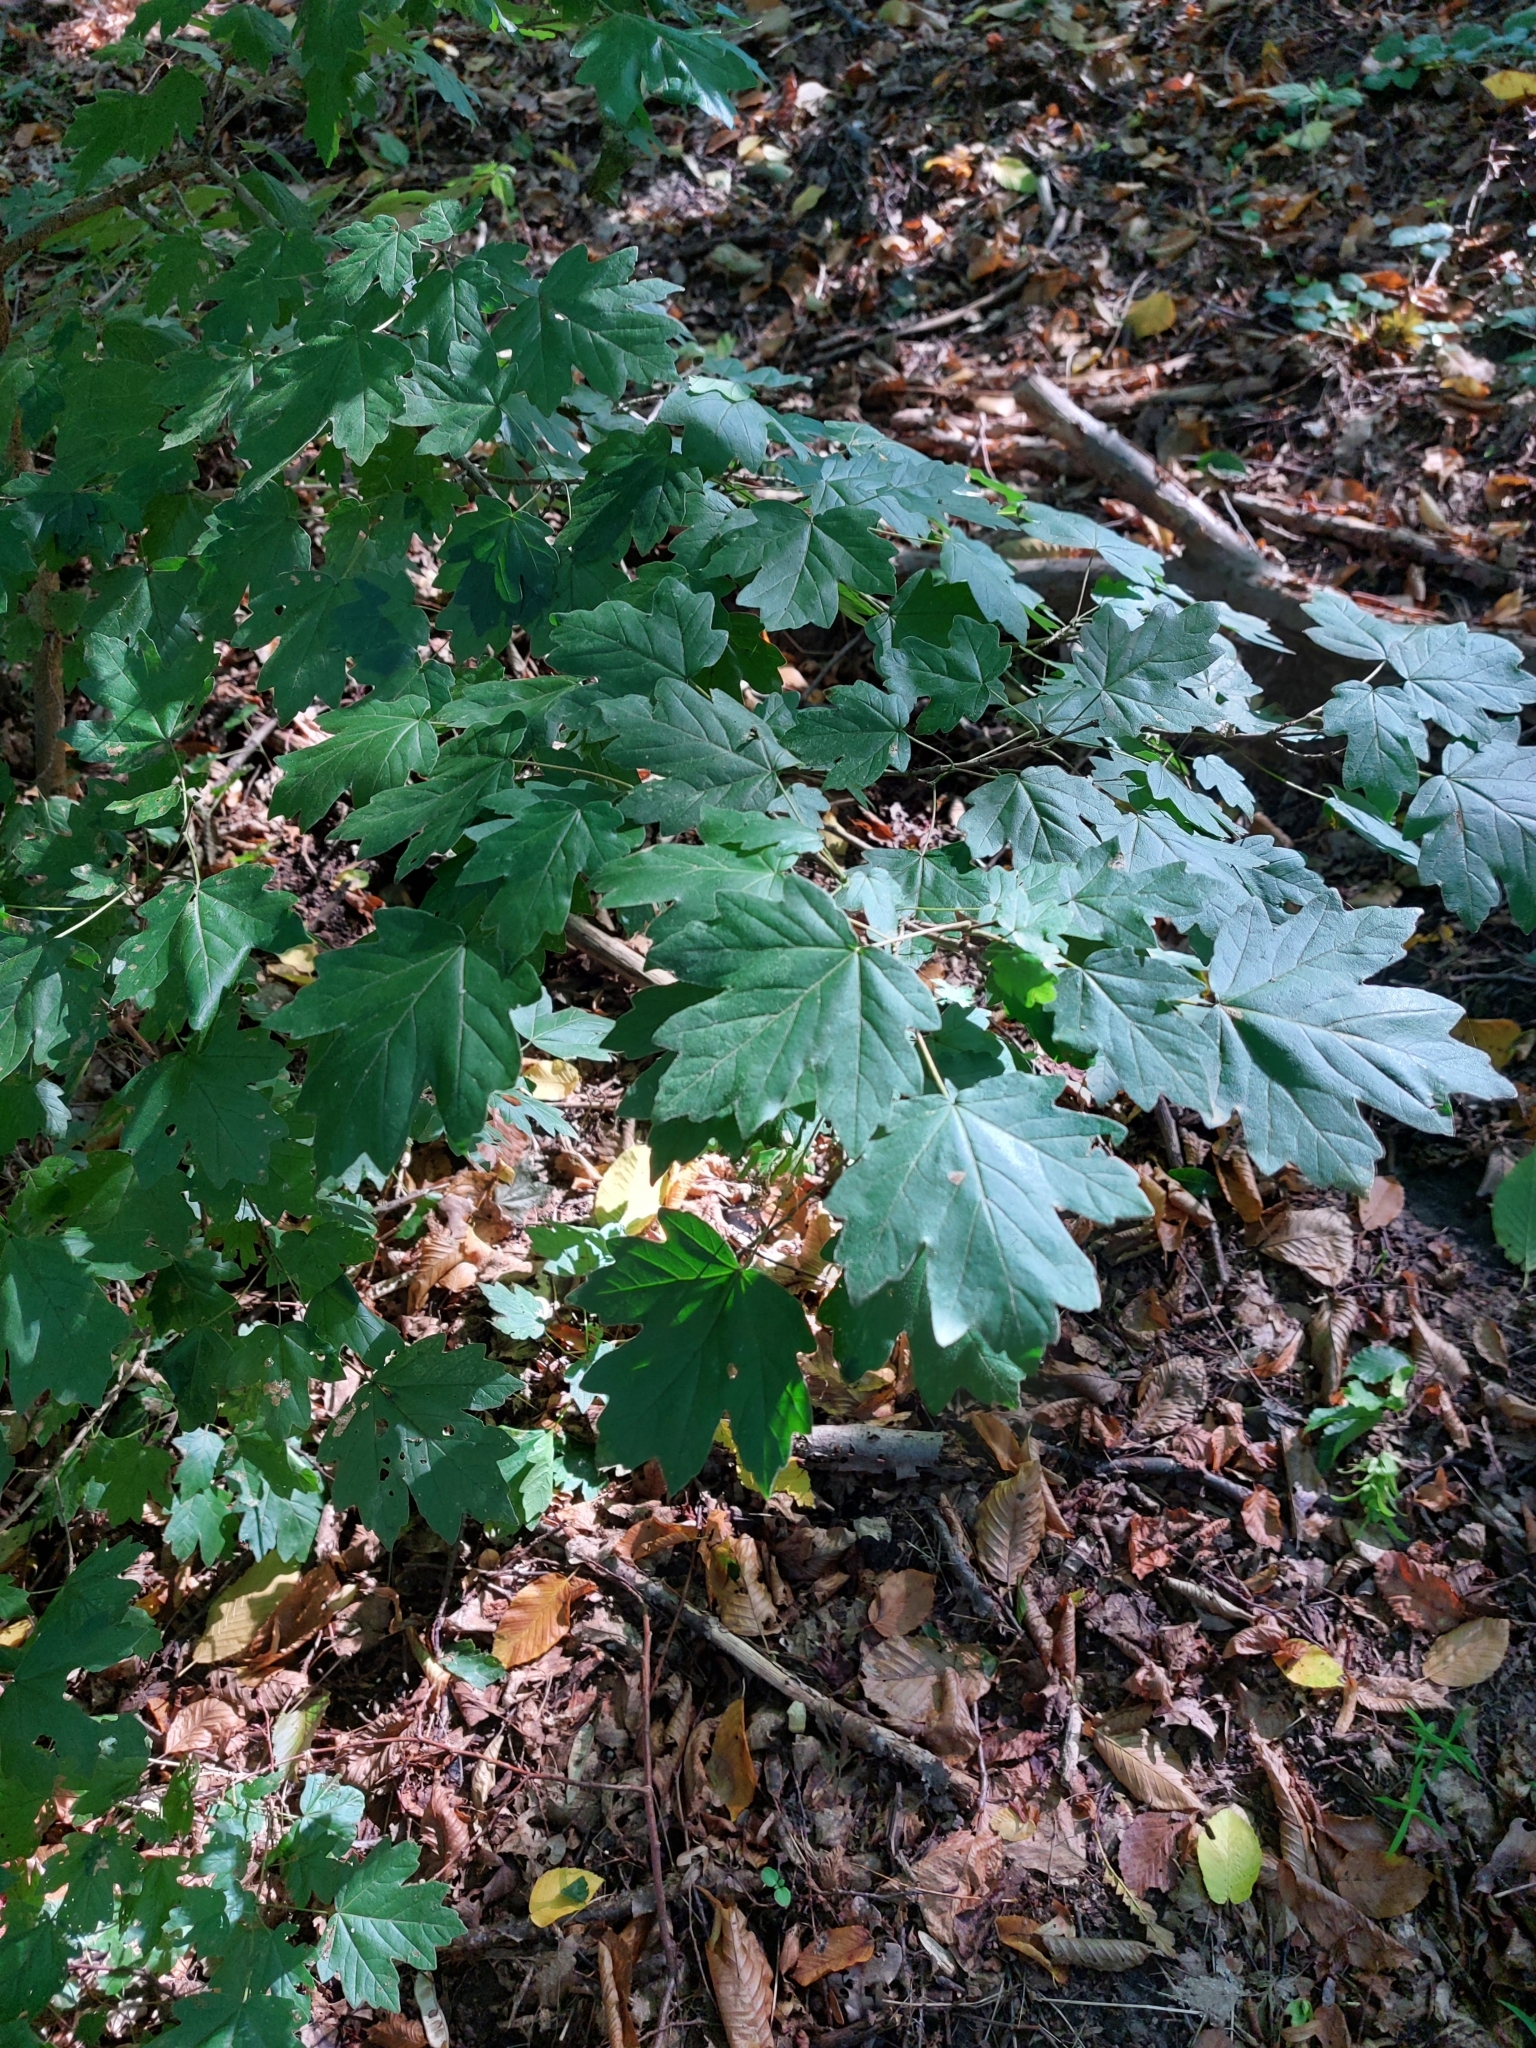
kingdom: Plantae
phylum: Tracheophyta
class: Magnoliopsida
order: Sapindales
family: Sapindaceae
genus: Acer
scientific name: Acer campestre
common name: Field maple
